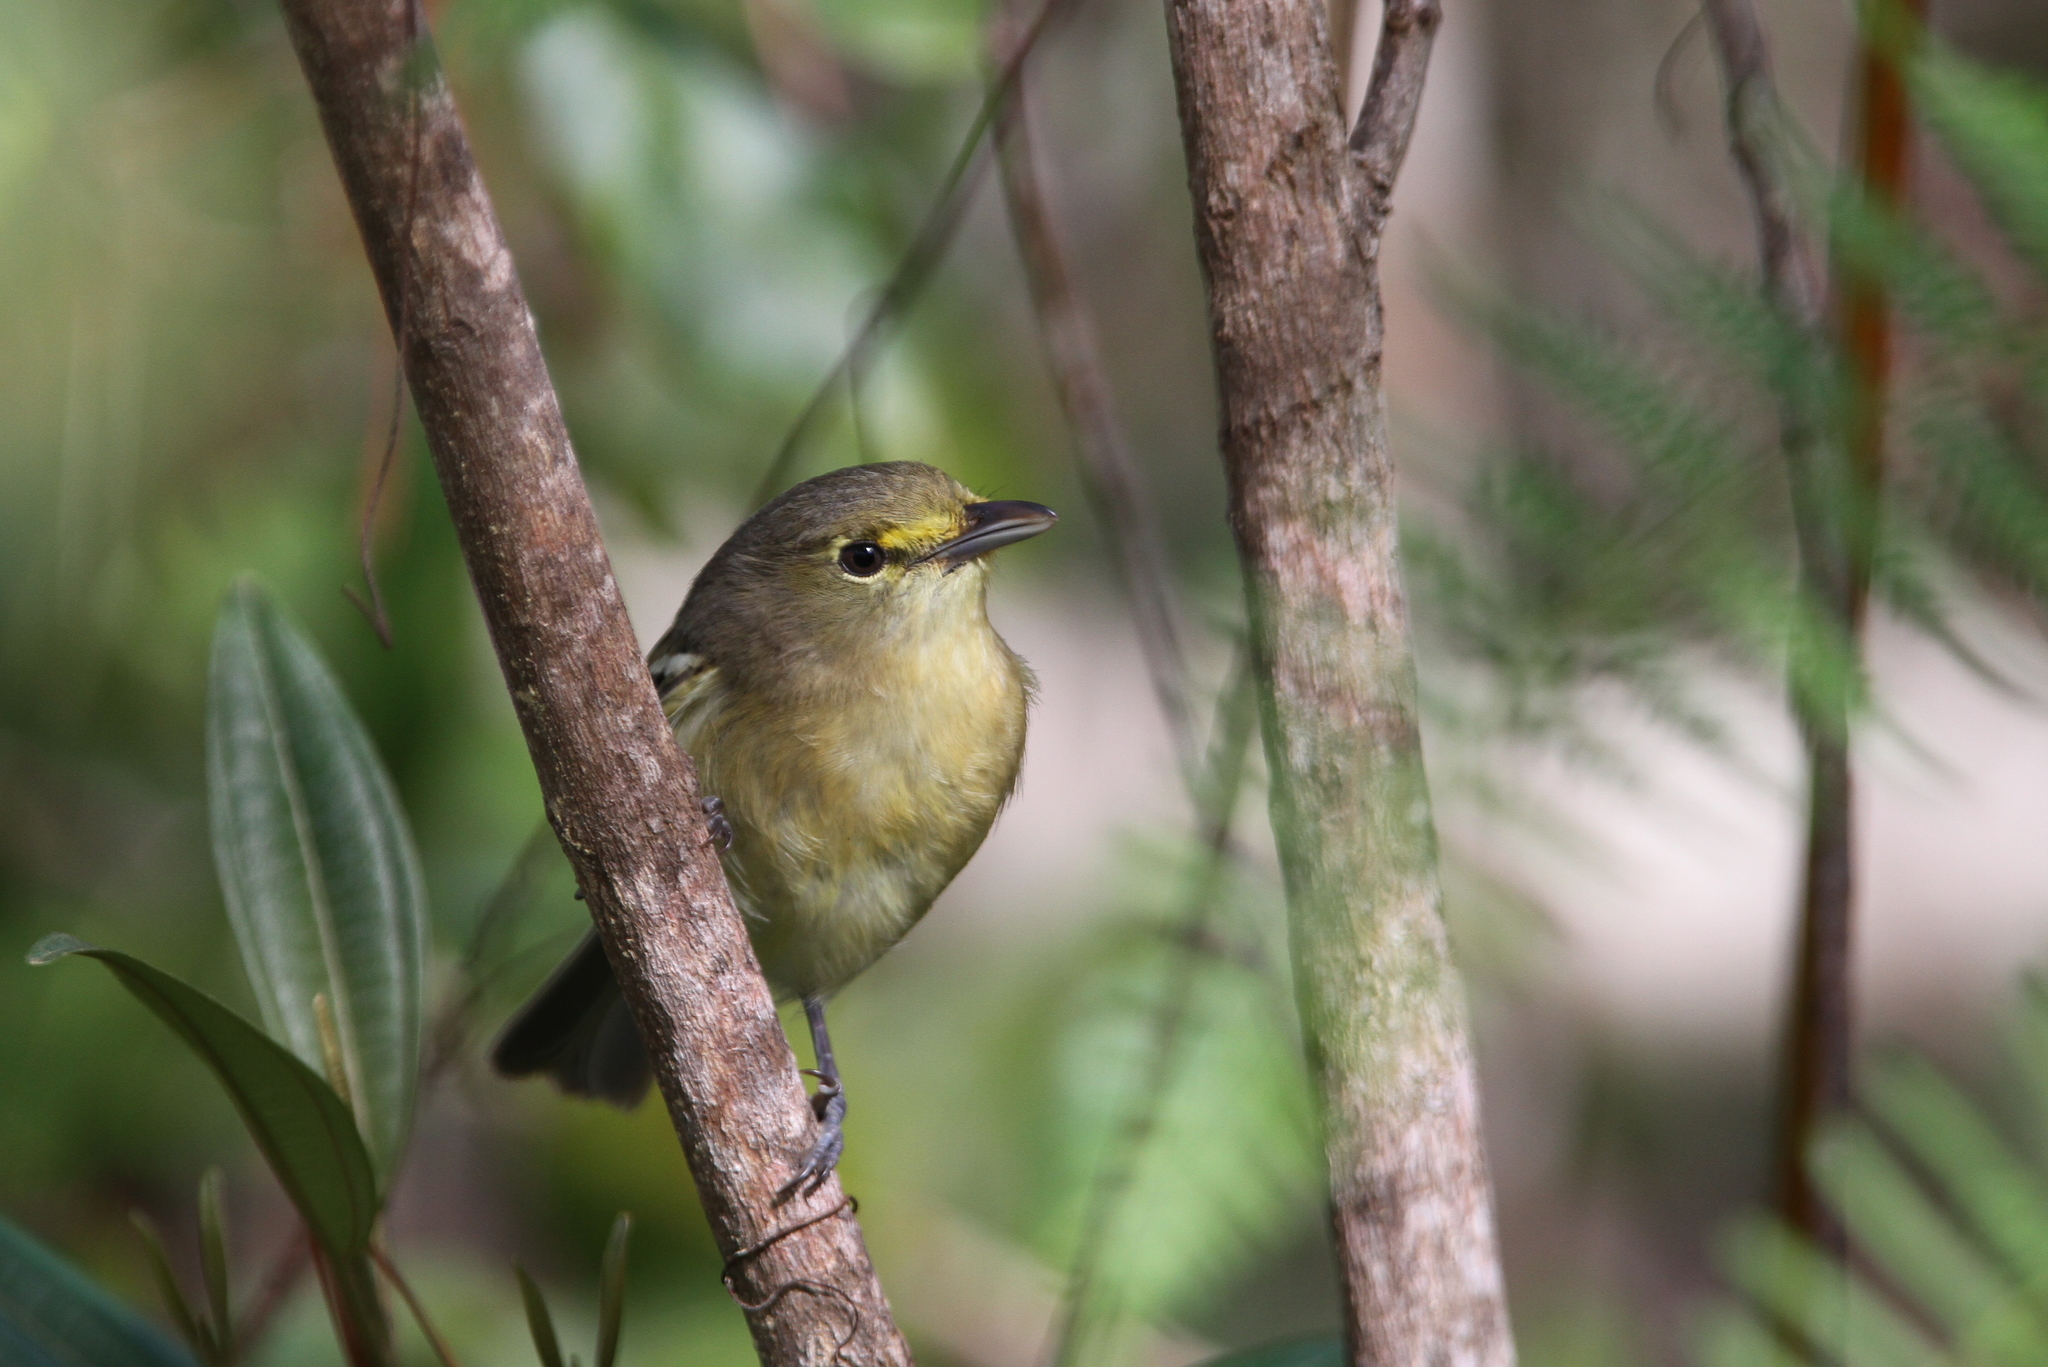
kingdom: Animalia
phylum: Chordata
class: Aves
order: Passeriformes
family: Vireonidae
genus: Vireo
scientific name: Vireo crassirostris
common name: Thick-billed vireo
